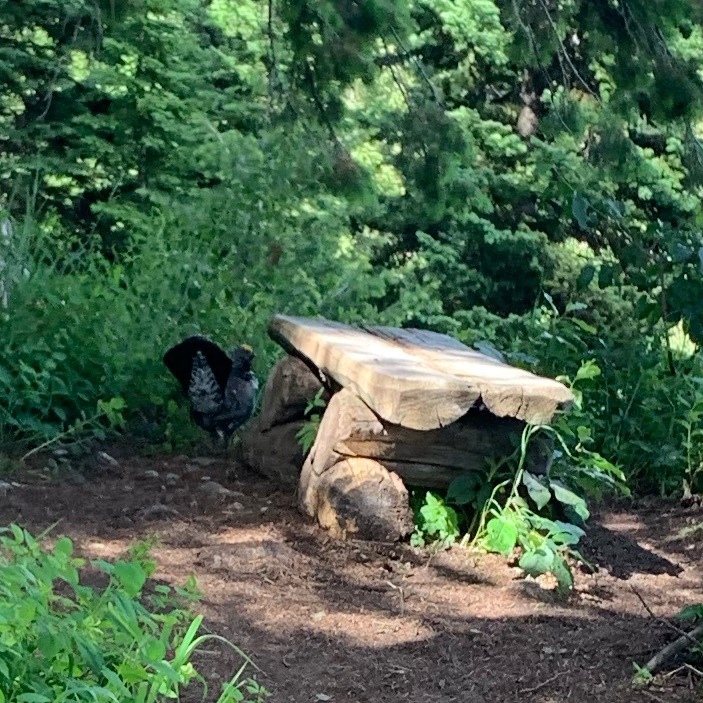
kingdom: Animalia
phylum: Chordata
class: Aves
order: Galliformes
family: Phasianidae
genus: Dendragapus
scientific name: Dendragapus obscurus
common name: Dusky grouse
